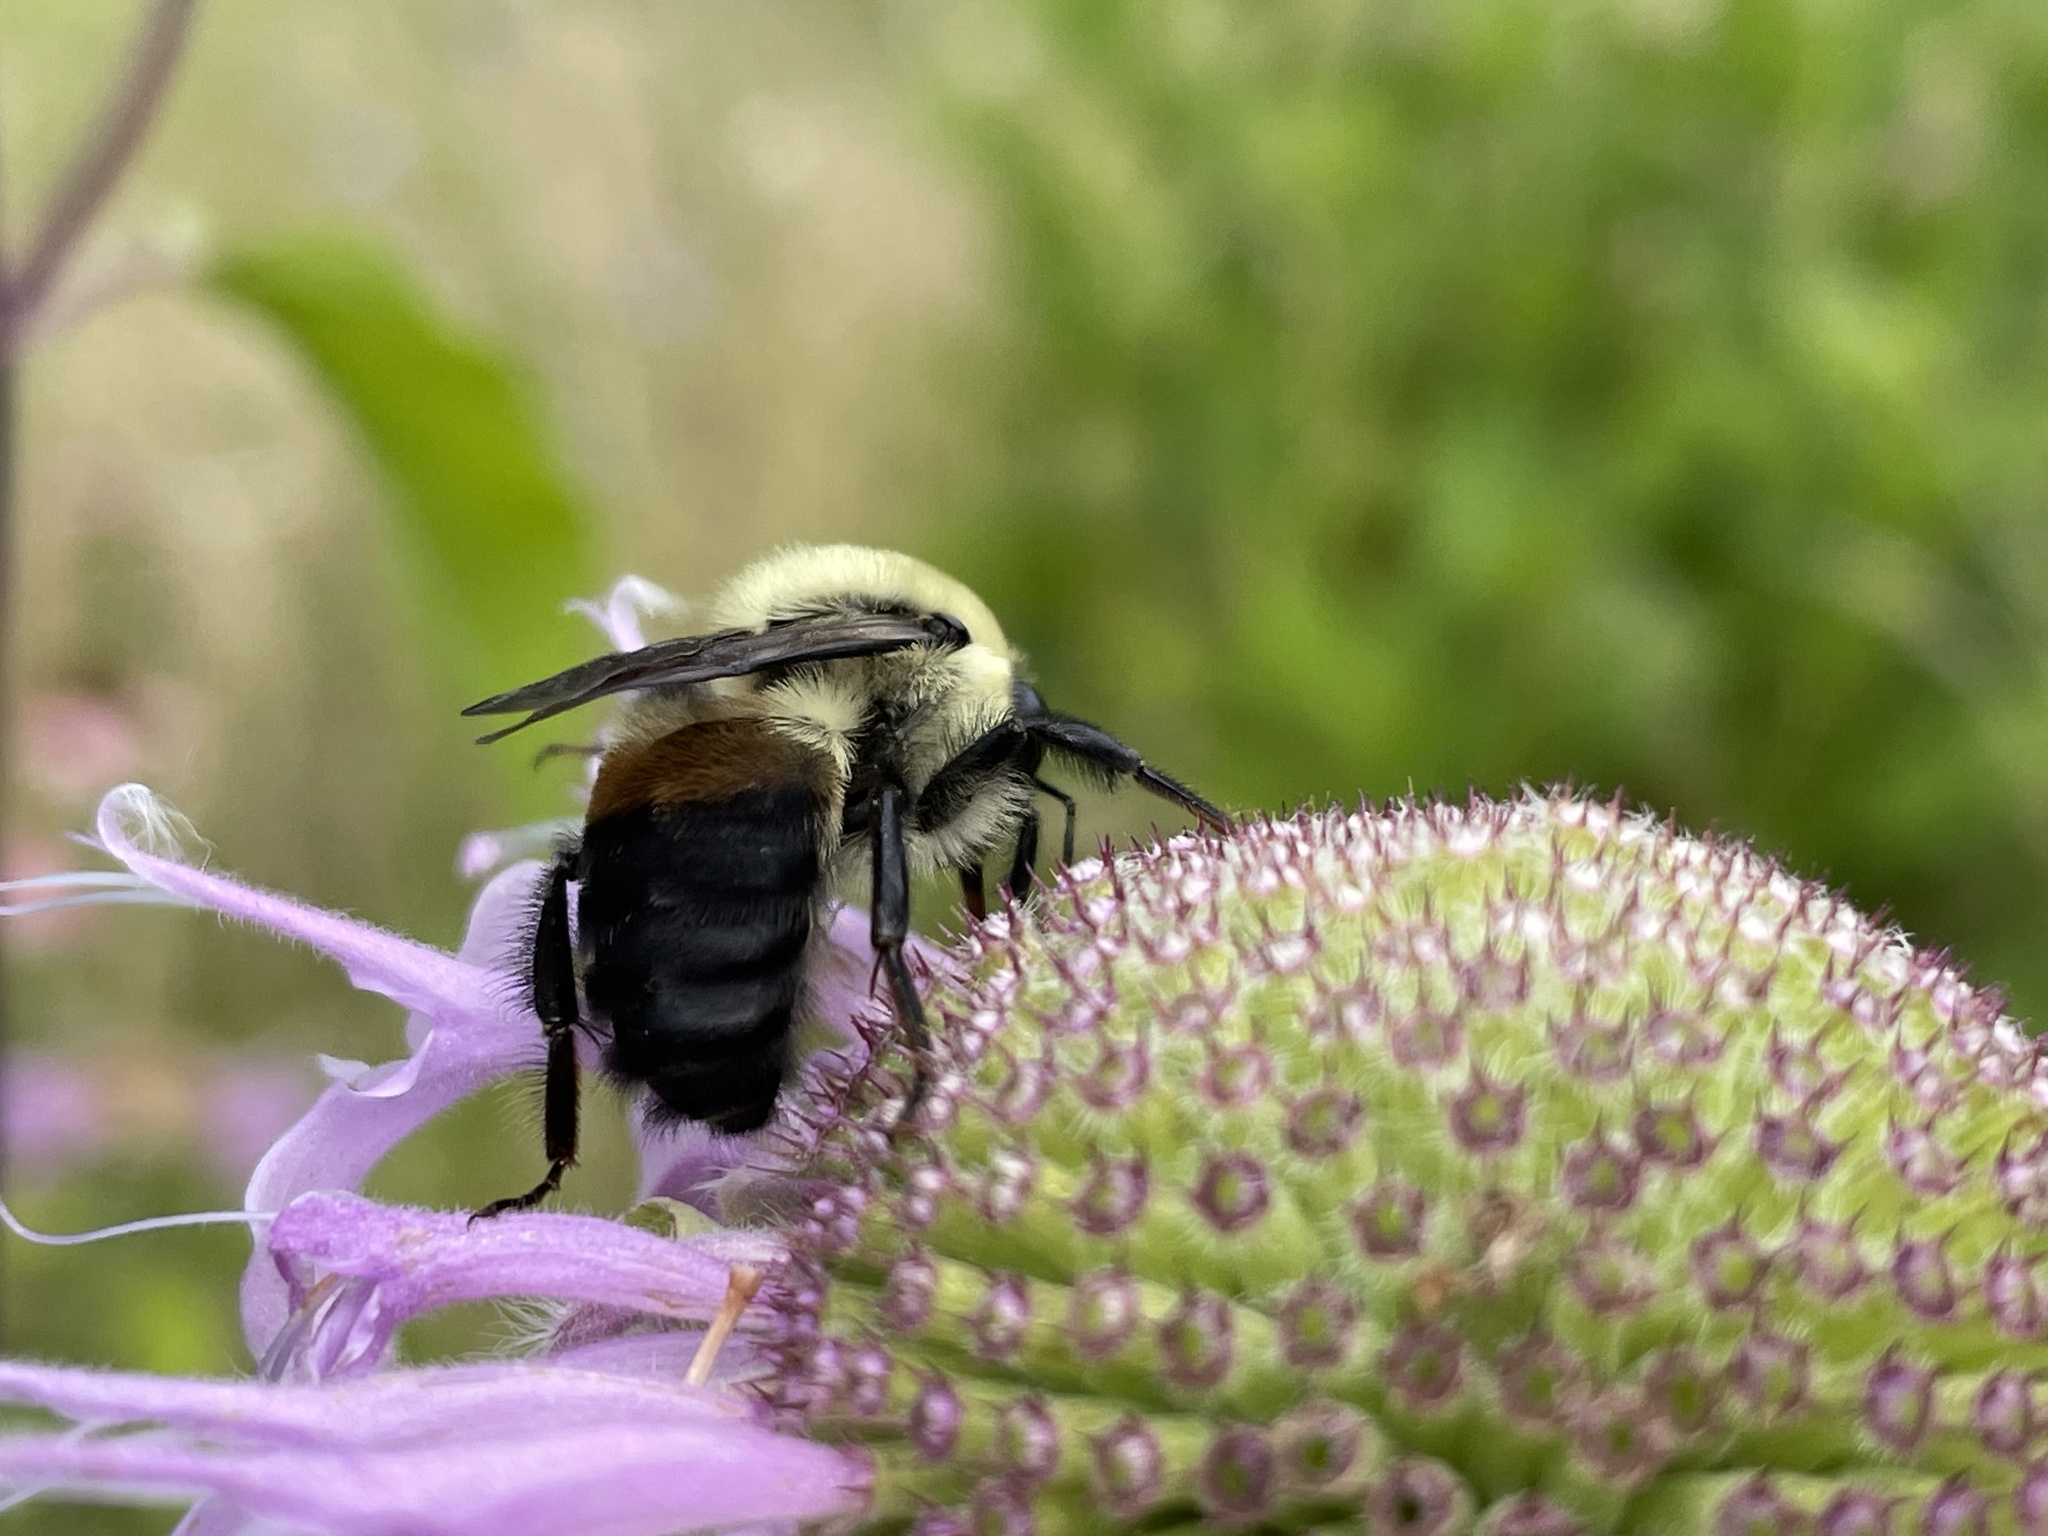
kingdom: Animalia
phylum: Arthropoda
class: Insecta
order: Hymenoptera
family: Apidae
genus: Bombus
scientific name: Bombus griseocollis
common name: Brown-belted bumble bee
